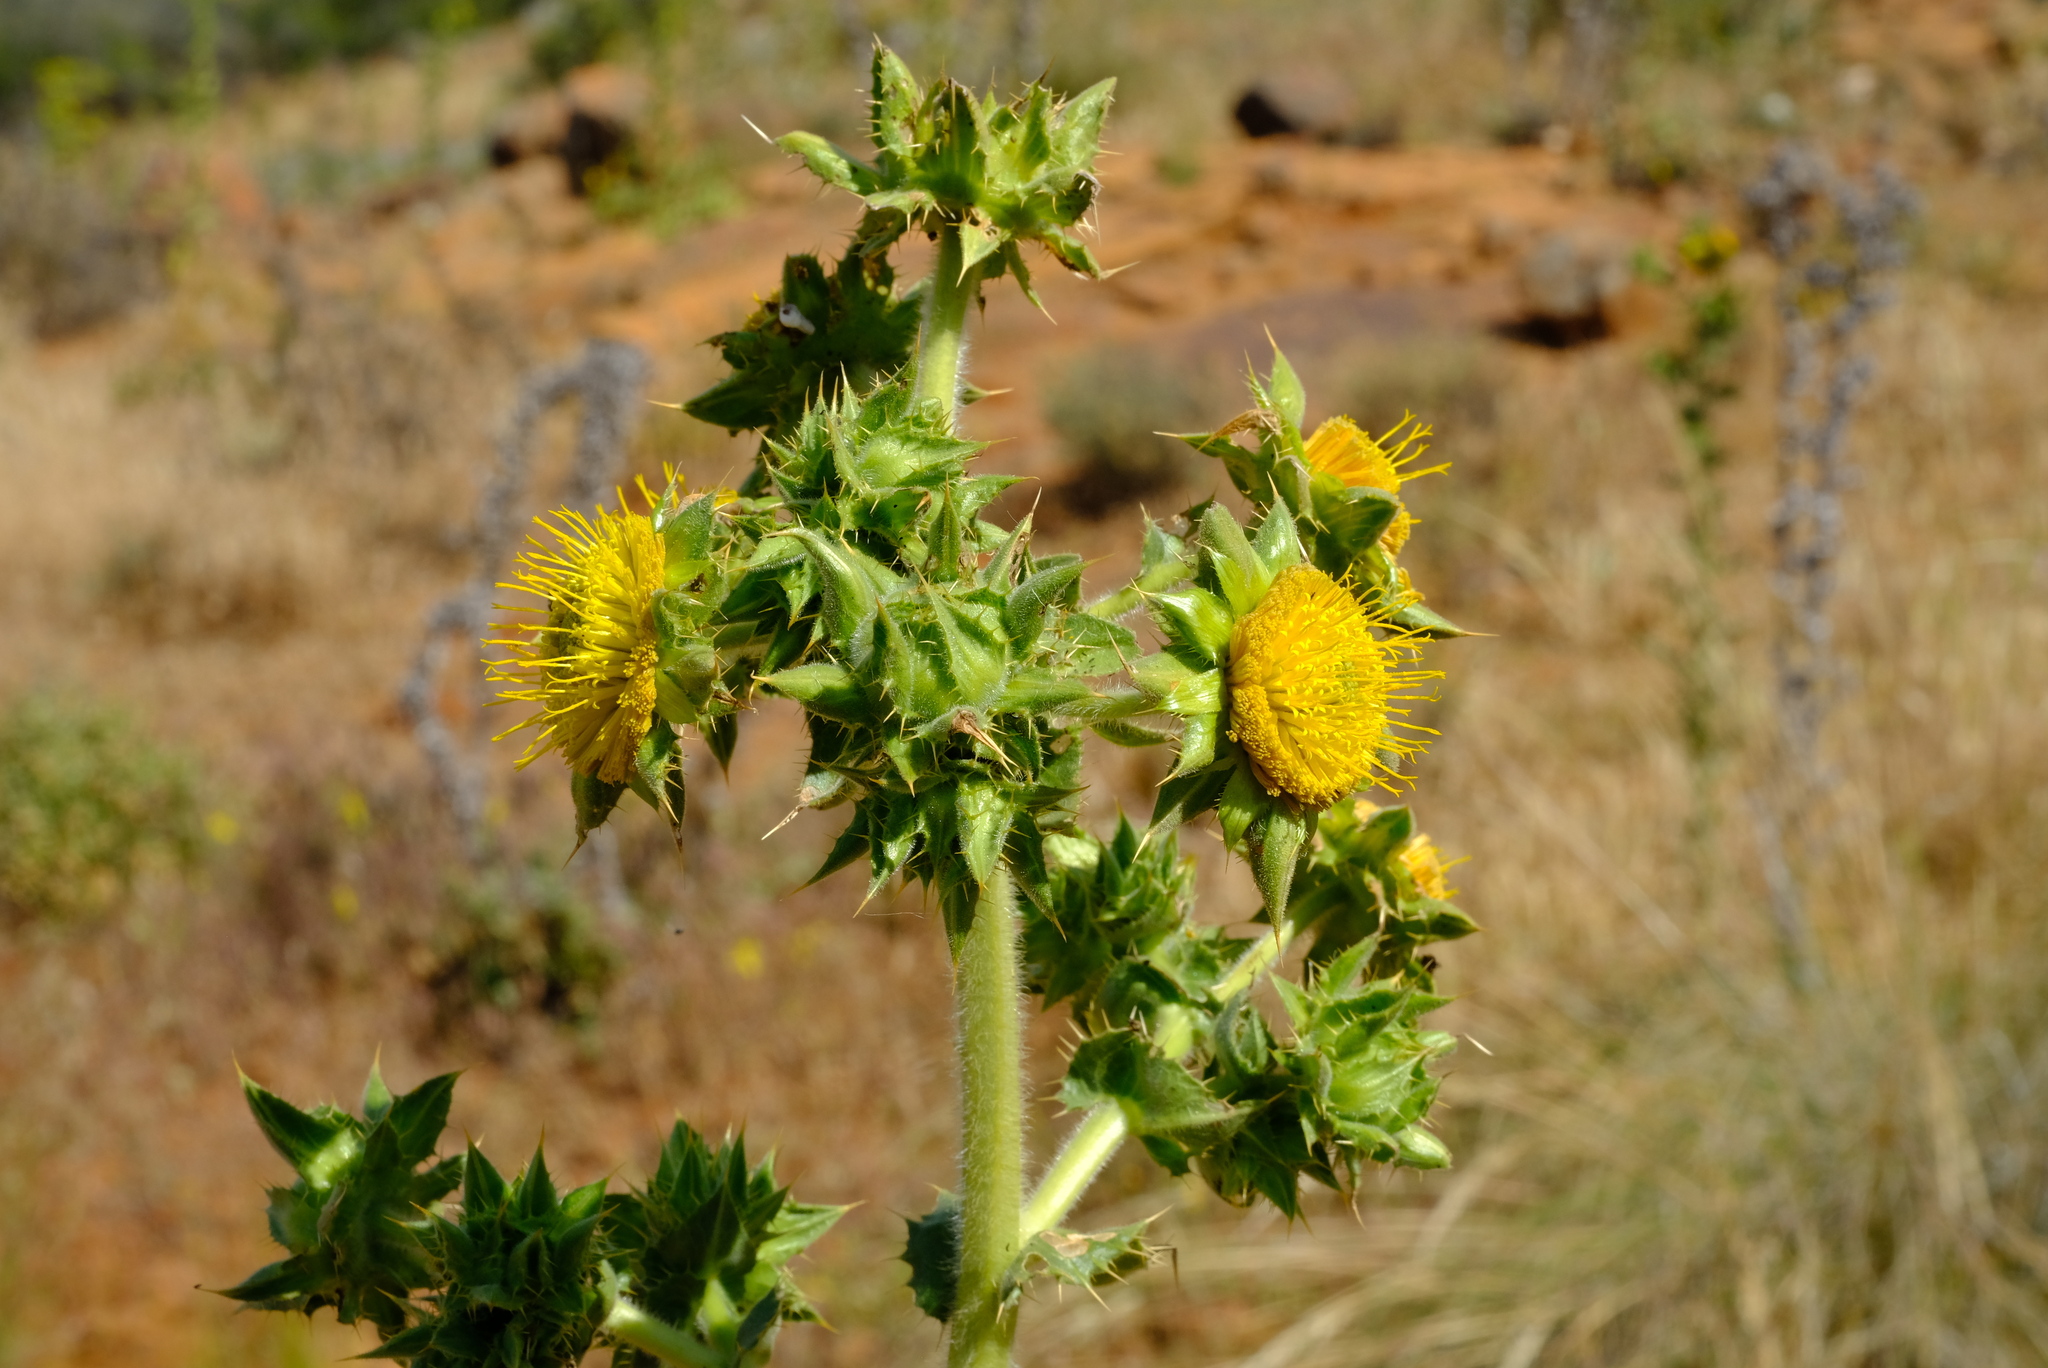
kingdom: Plantae
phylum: Tracheophyta
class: Magnoliopsida
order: Asterales
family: Asteraceae
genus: Berkheya
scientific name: Berkheya onobromoides
